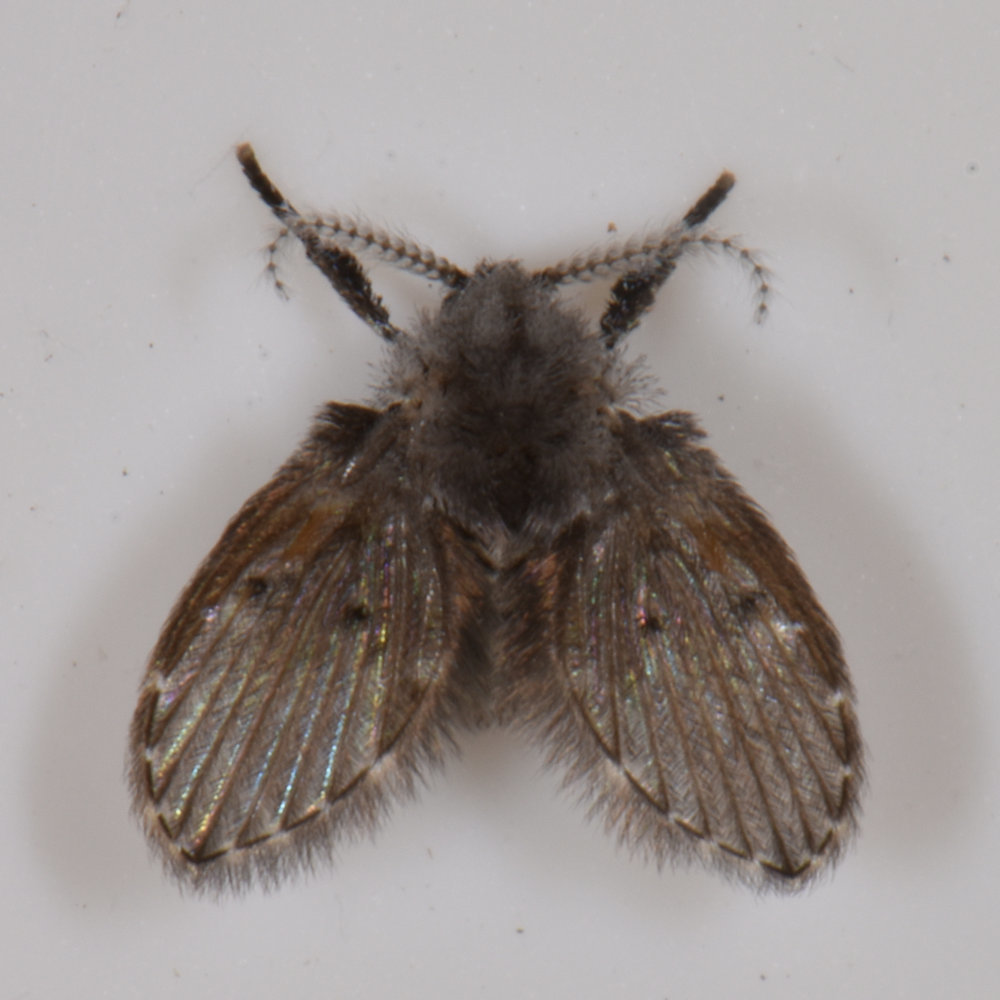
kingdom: Animalia
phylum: Arthropoda
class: Insecta
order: Diptera
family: Psychodidae
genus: Clogmia
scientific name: Clogmia albipunctatus
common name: White-spotted moth fly
